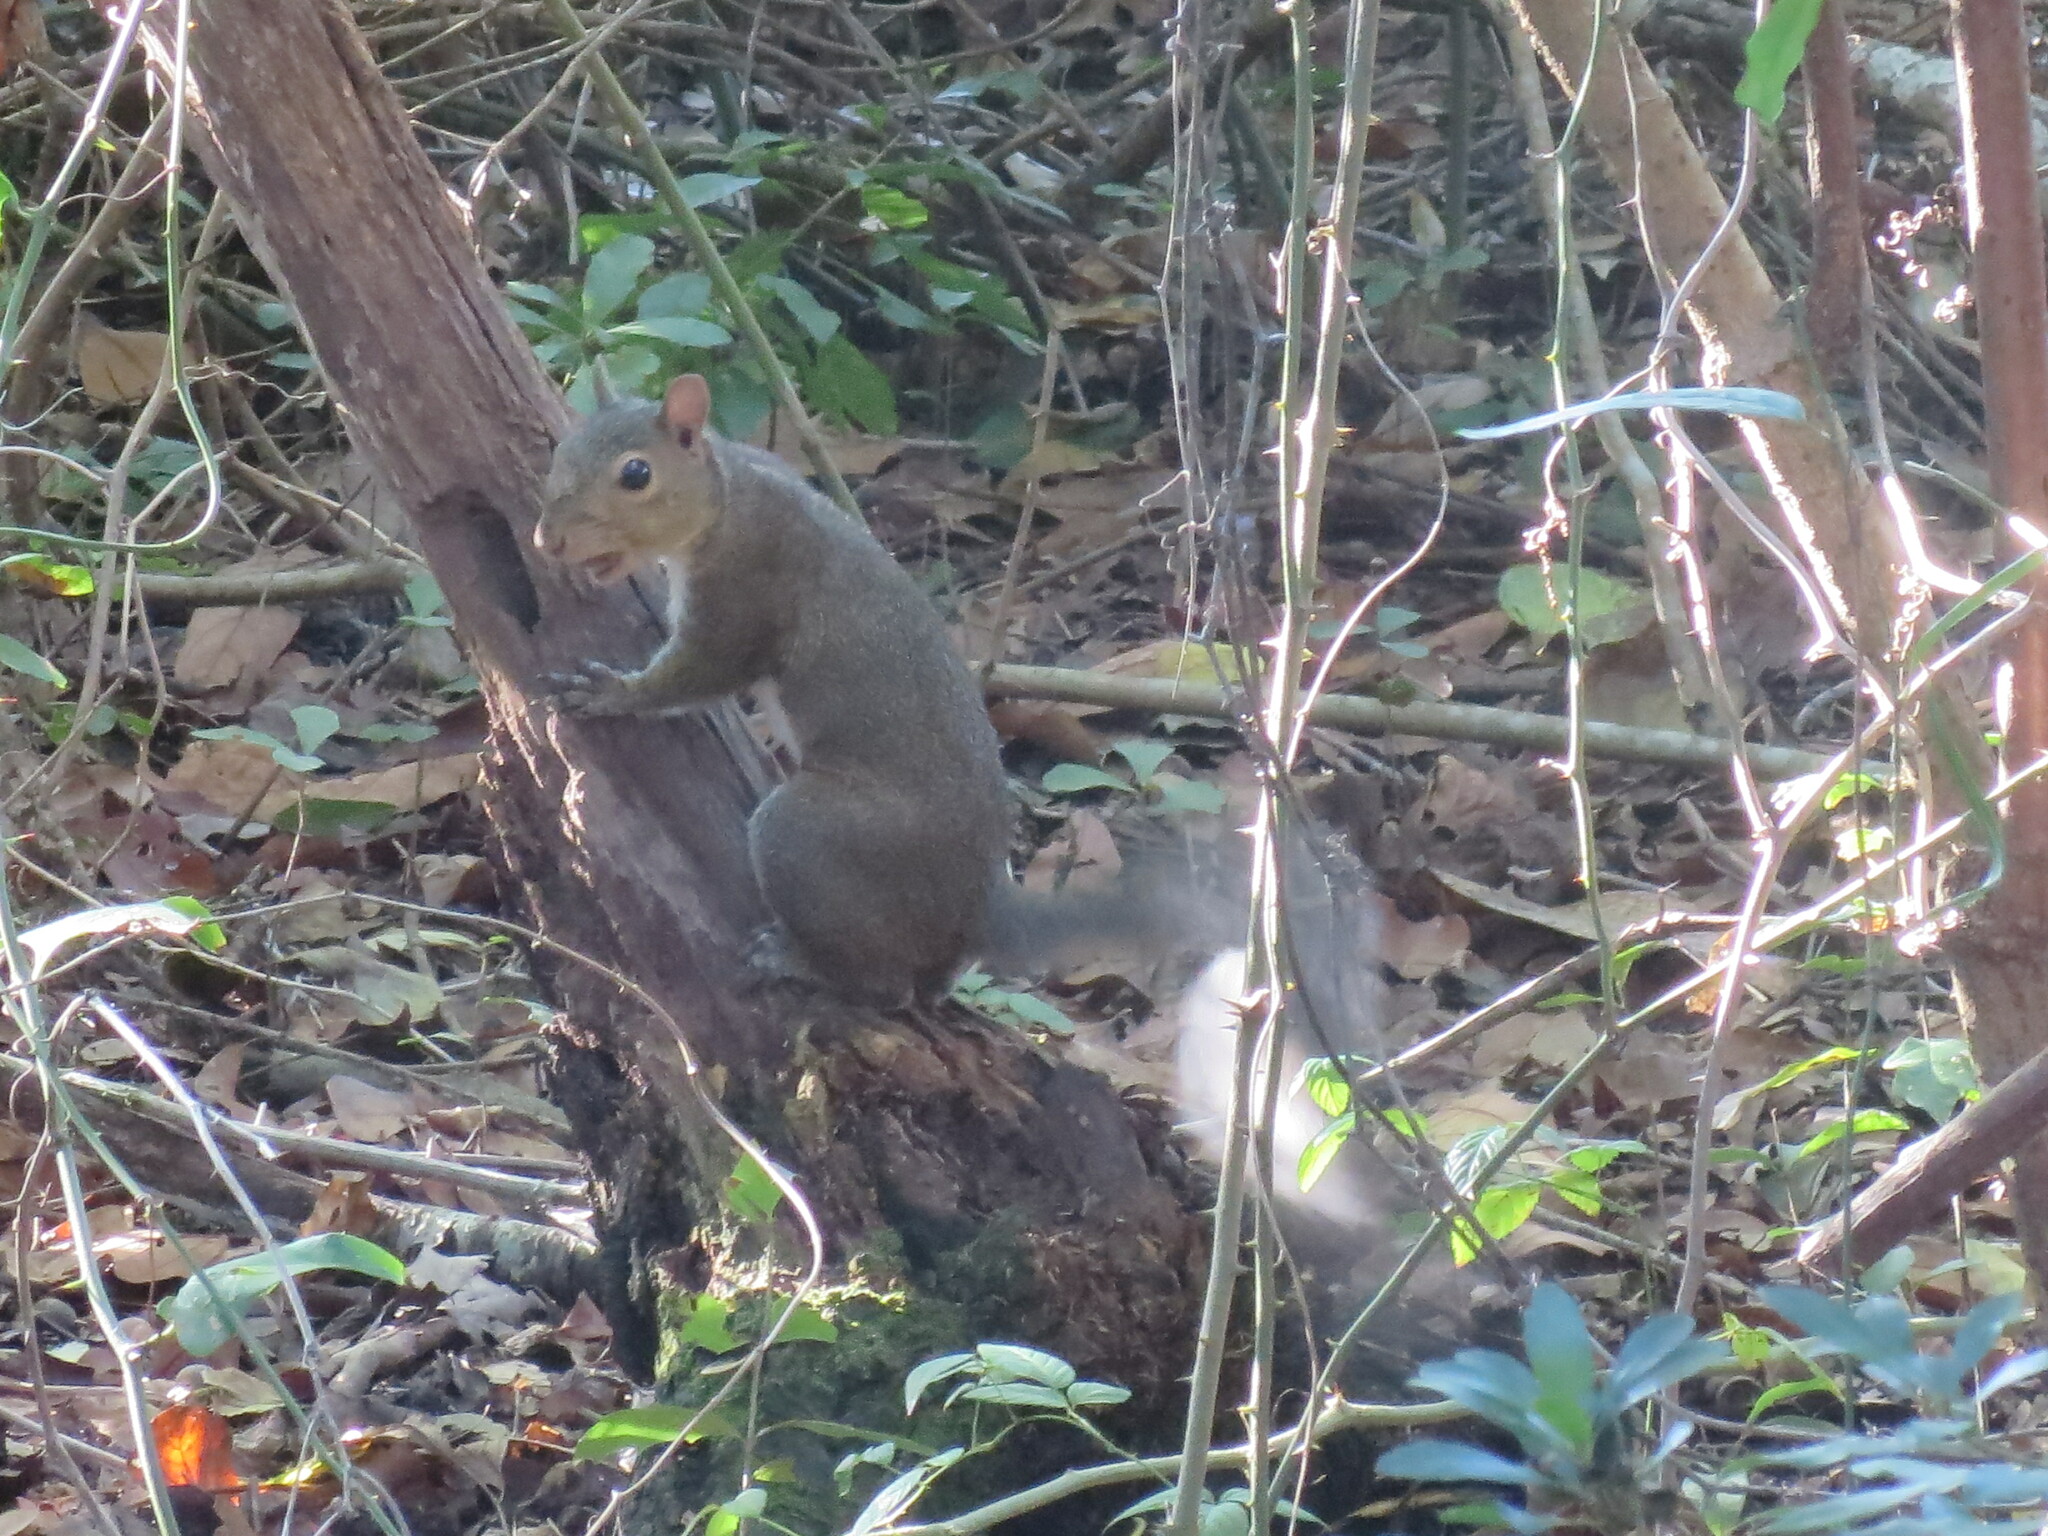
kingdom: Animalia
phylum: Chordata
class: Mammalia
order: Rodentia
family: Sciuridae
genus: Sciurus
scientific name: Sciurus carolinensis
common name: Eastern gray squirrel
